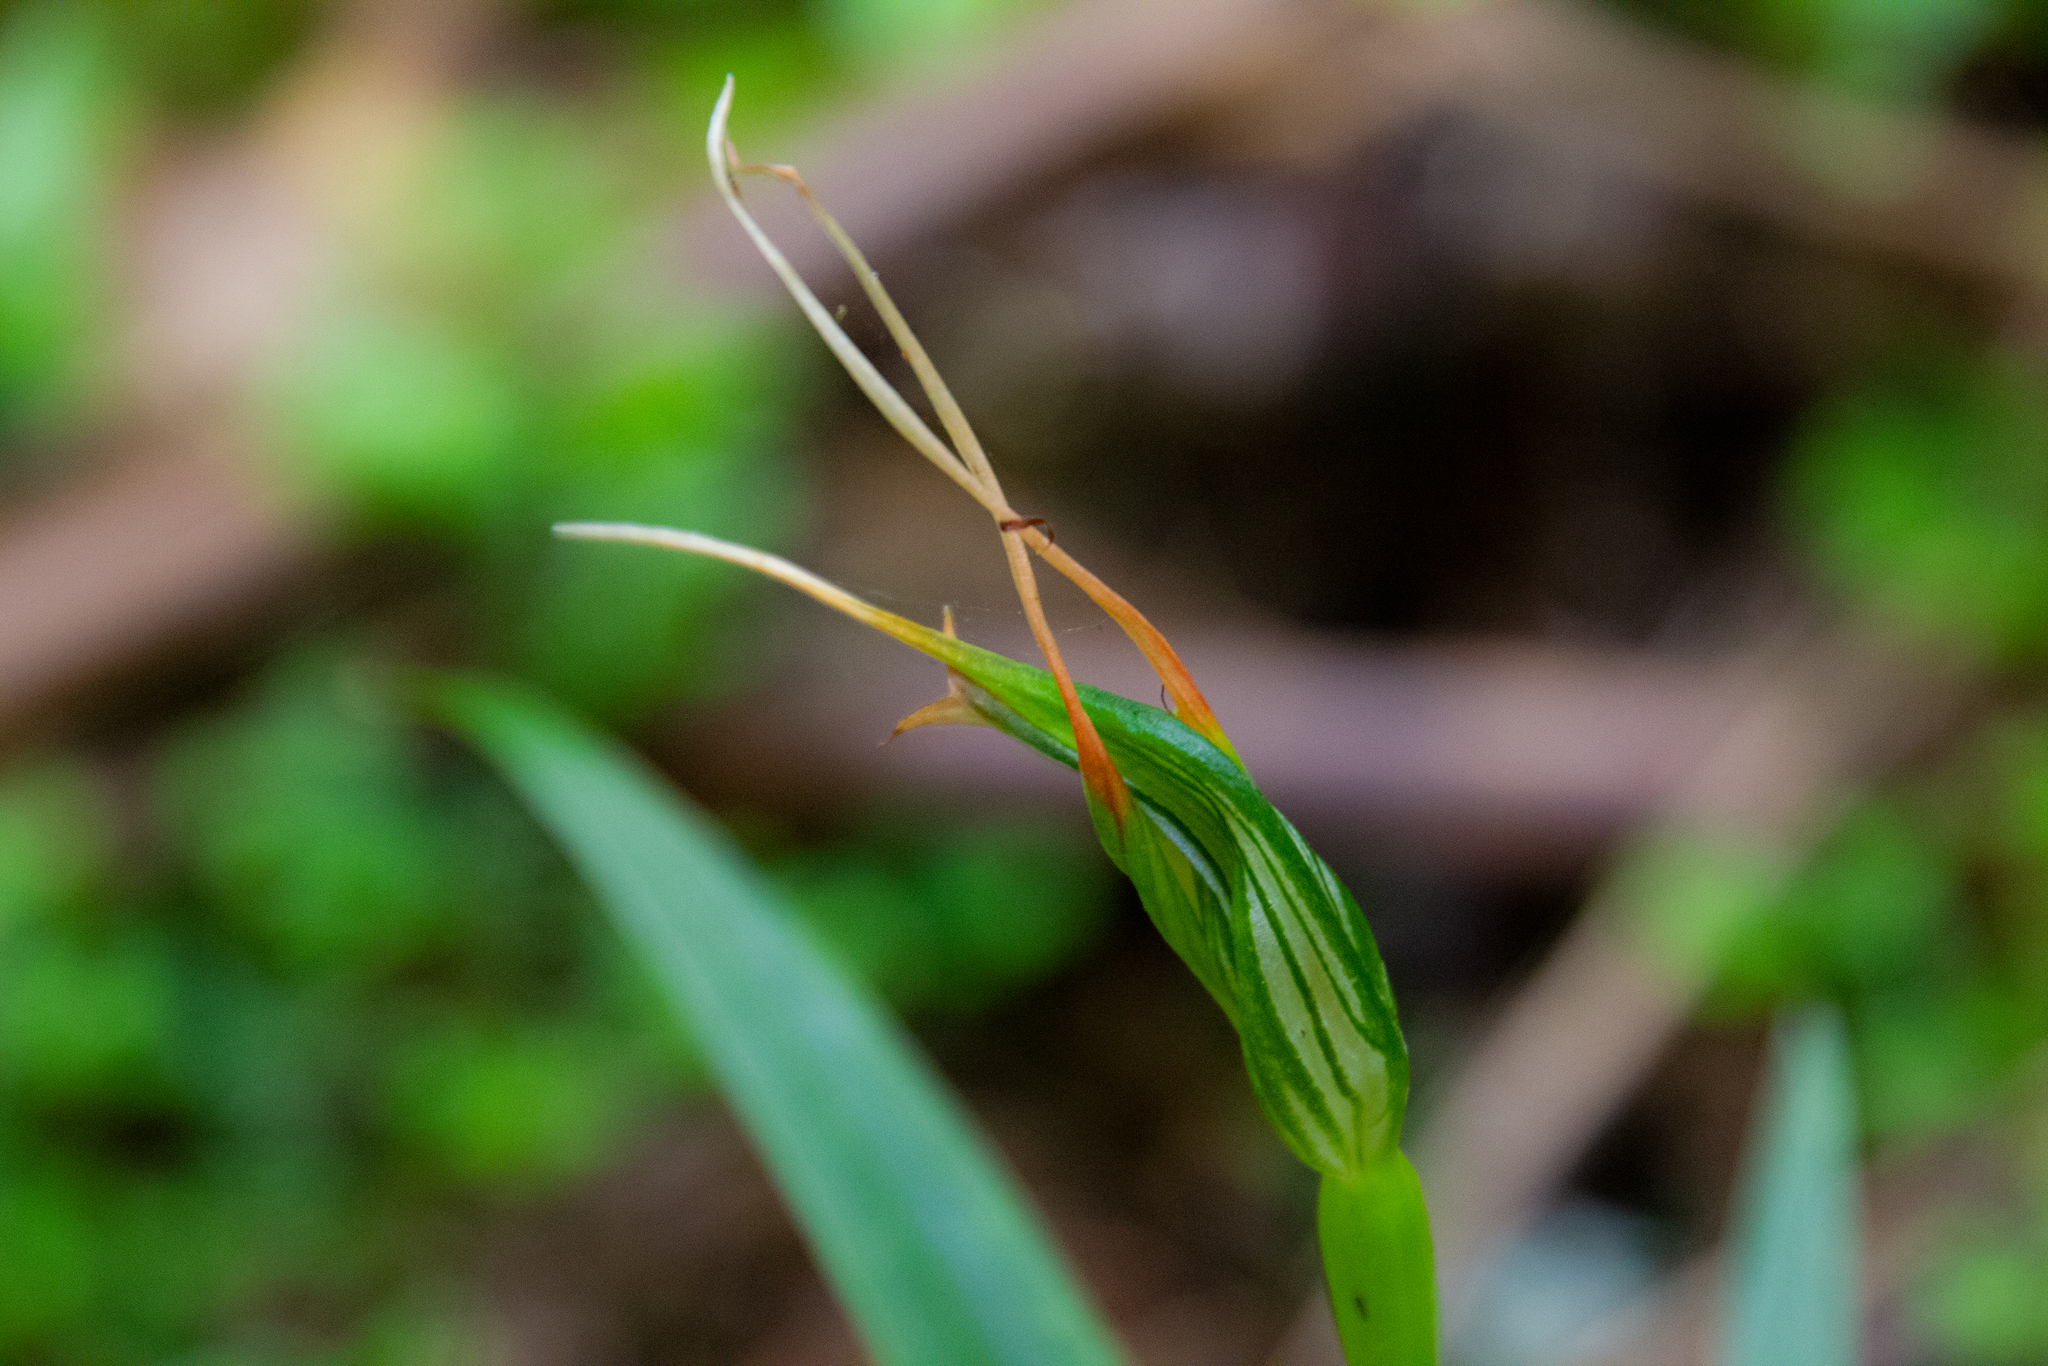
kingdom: Plantae
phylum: Tracheophyta
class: Liliopsida
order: Asparagales
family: Orchidaceae
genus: Pterostylis
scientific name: Pterostylis banksii
